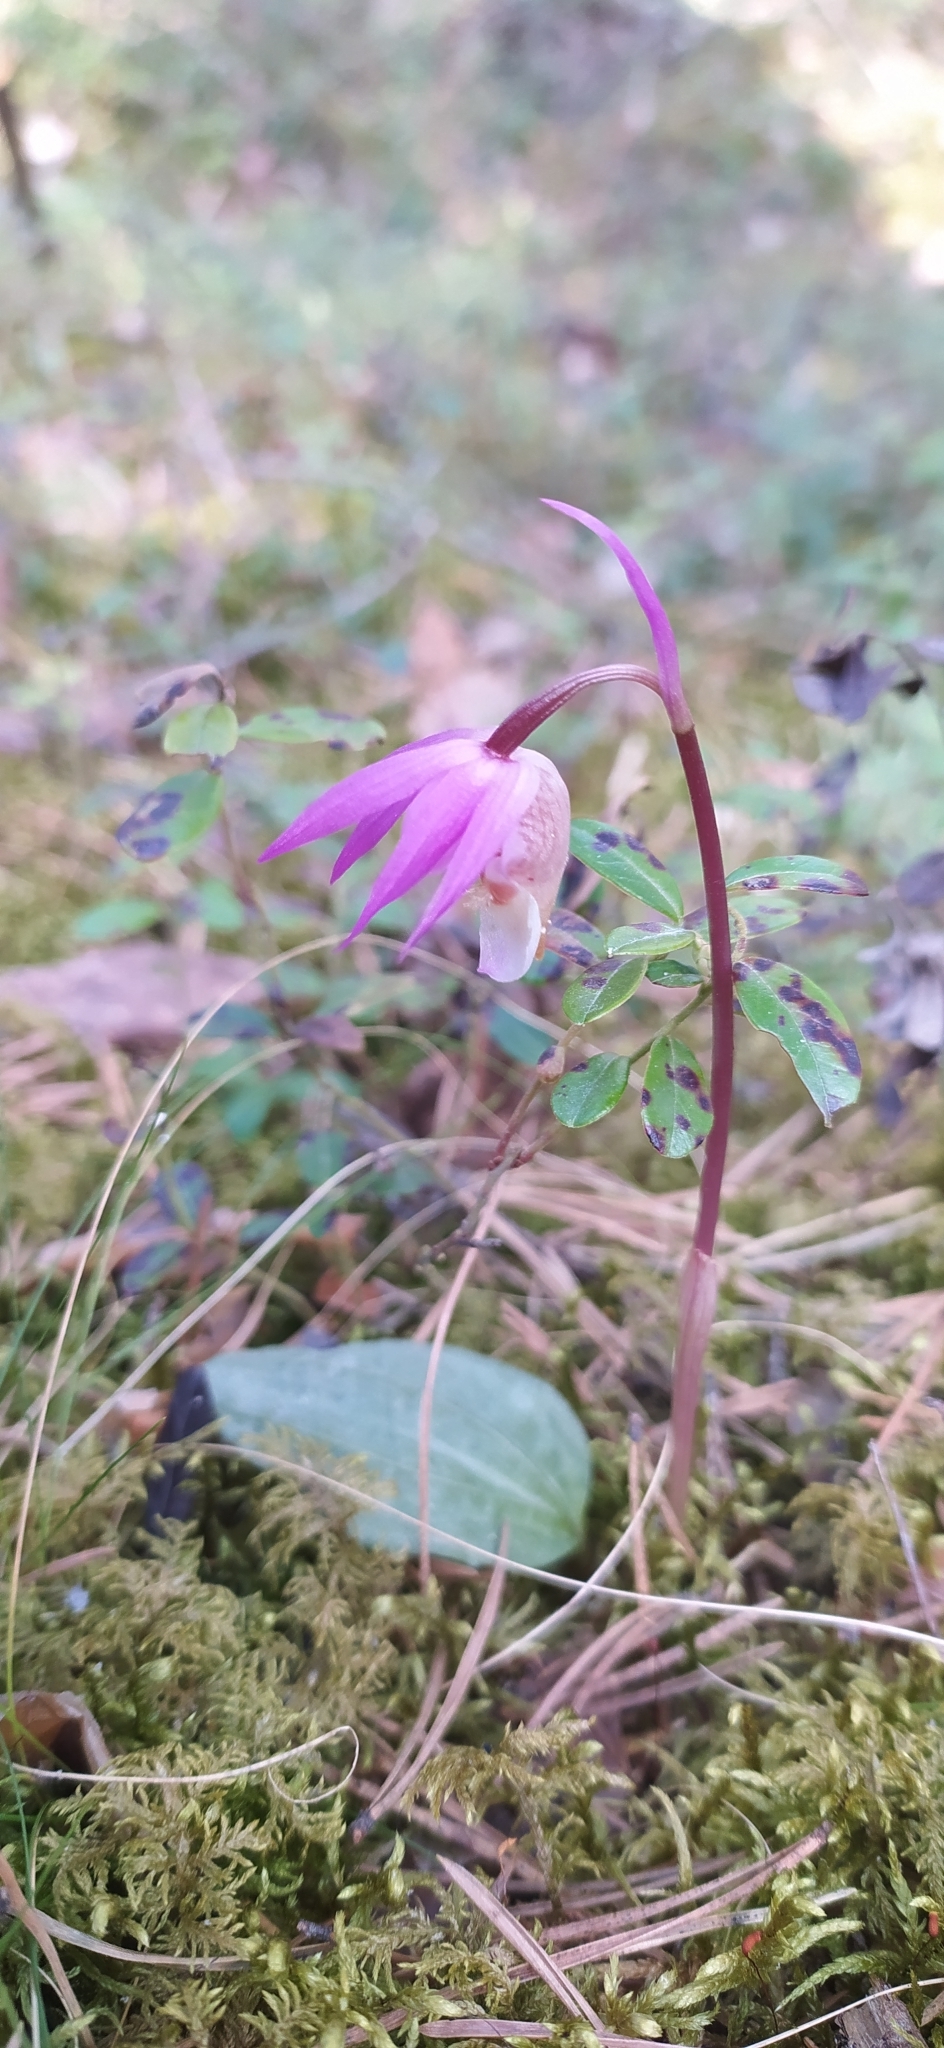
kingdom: Plantae
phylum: Tracheophyta
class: Liliopsida
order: Asparagales
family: Orchidaceae
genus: Calypso
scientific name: Calypso bulbosa
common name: Calypso
